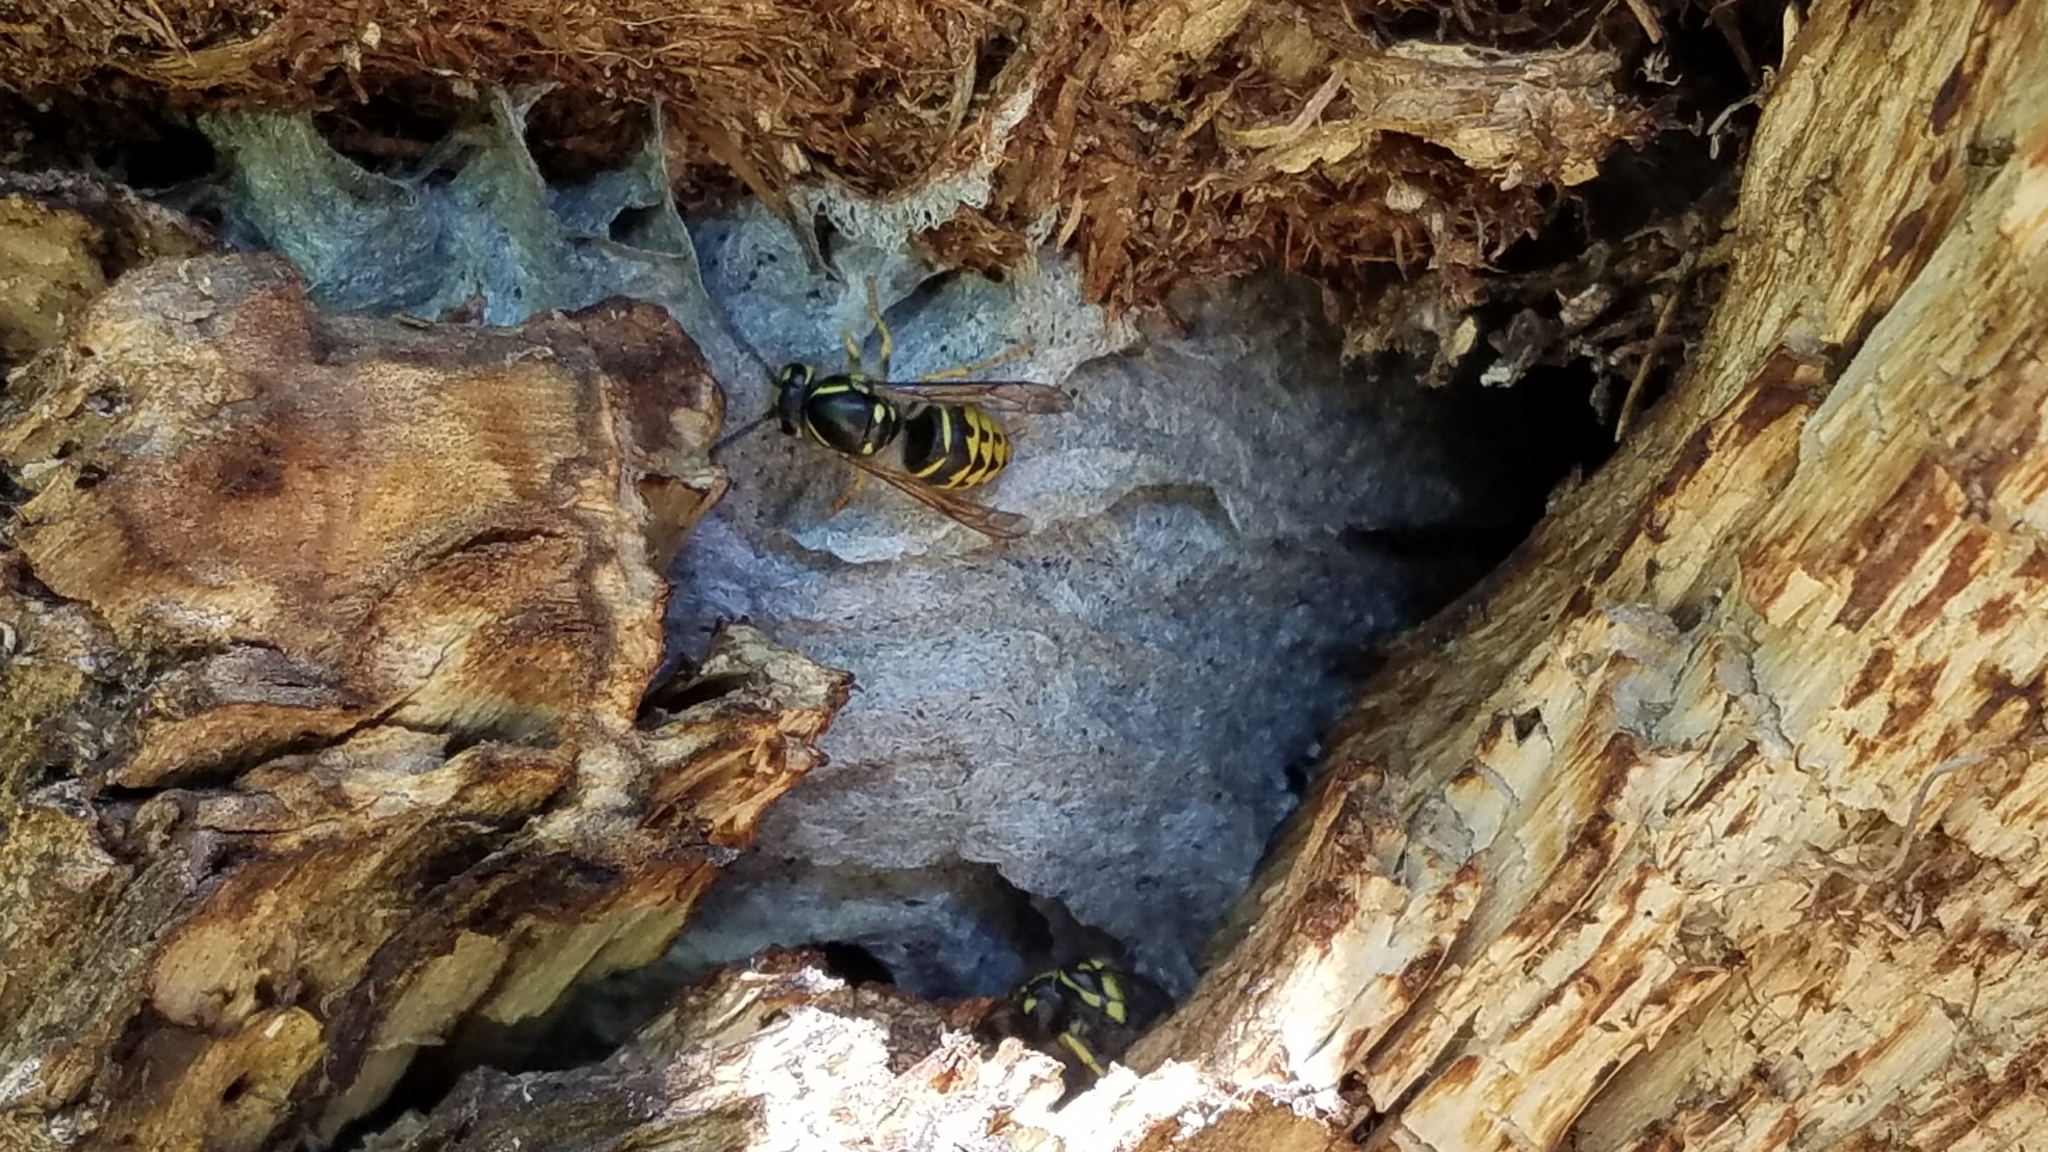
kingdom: Animalia
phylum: Arthropoda
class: Insecta
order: Hymenoptera
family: Vespidae
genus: Dolichovespula
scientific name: Dolichovespula arenaria
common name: Aerial yellowjacket
